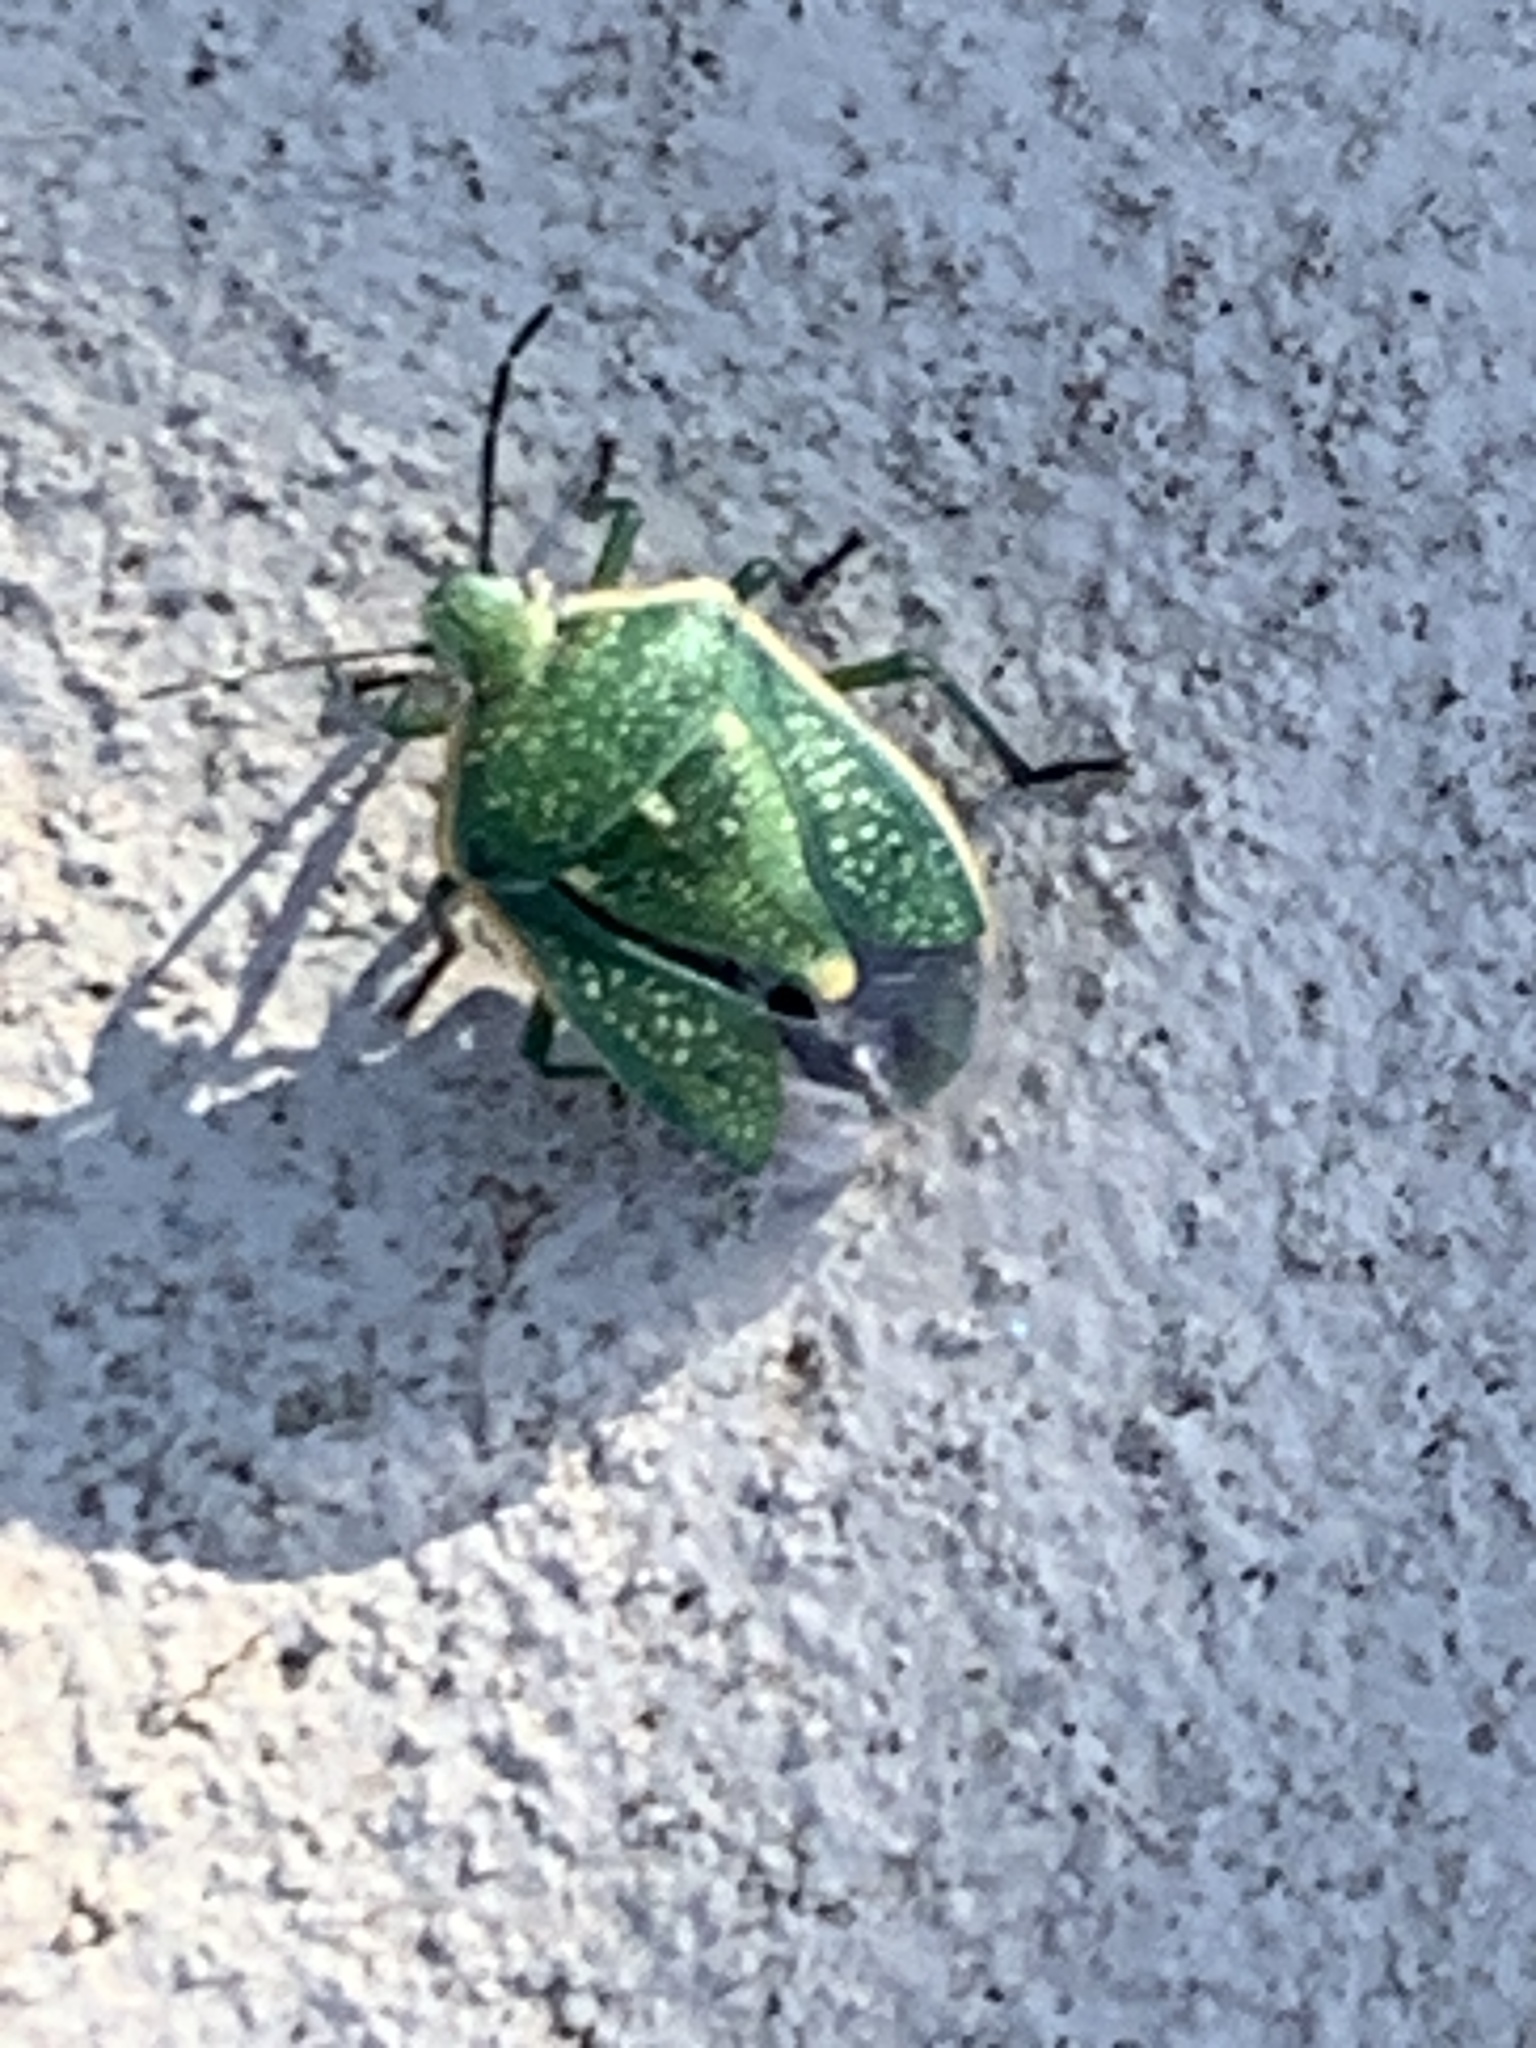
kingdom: Animalia
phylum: Arthropoda
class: Insecta
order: Hemiptera
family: Pentatomidae
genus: Chlorochroa
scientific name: Chlorochroa sayi
